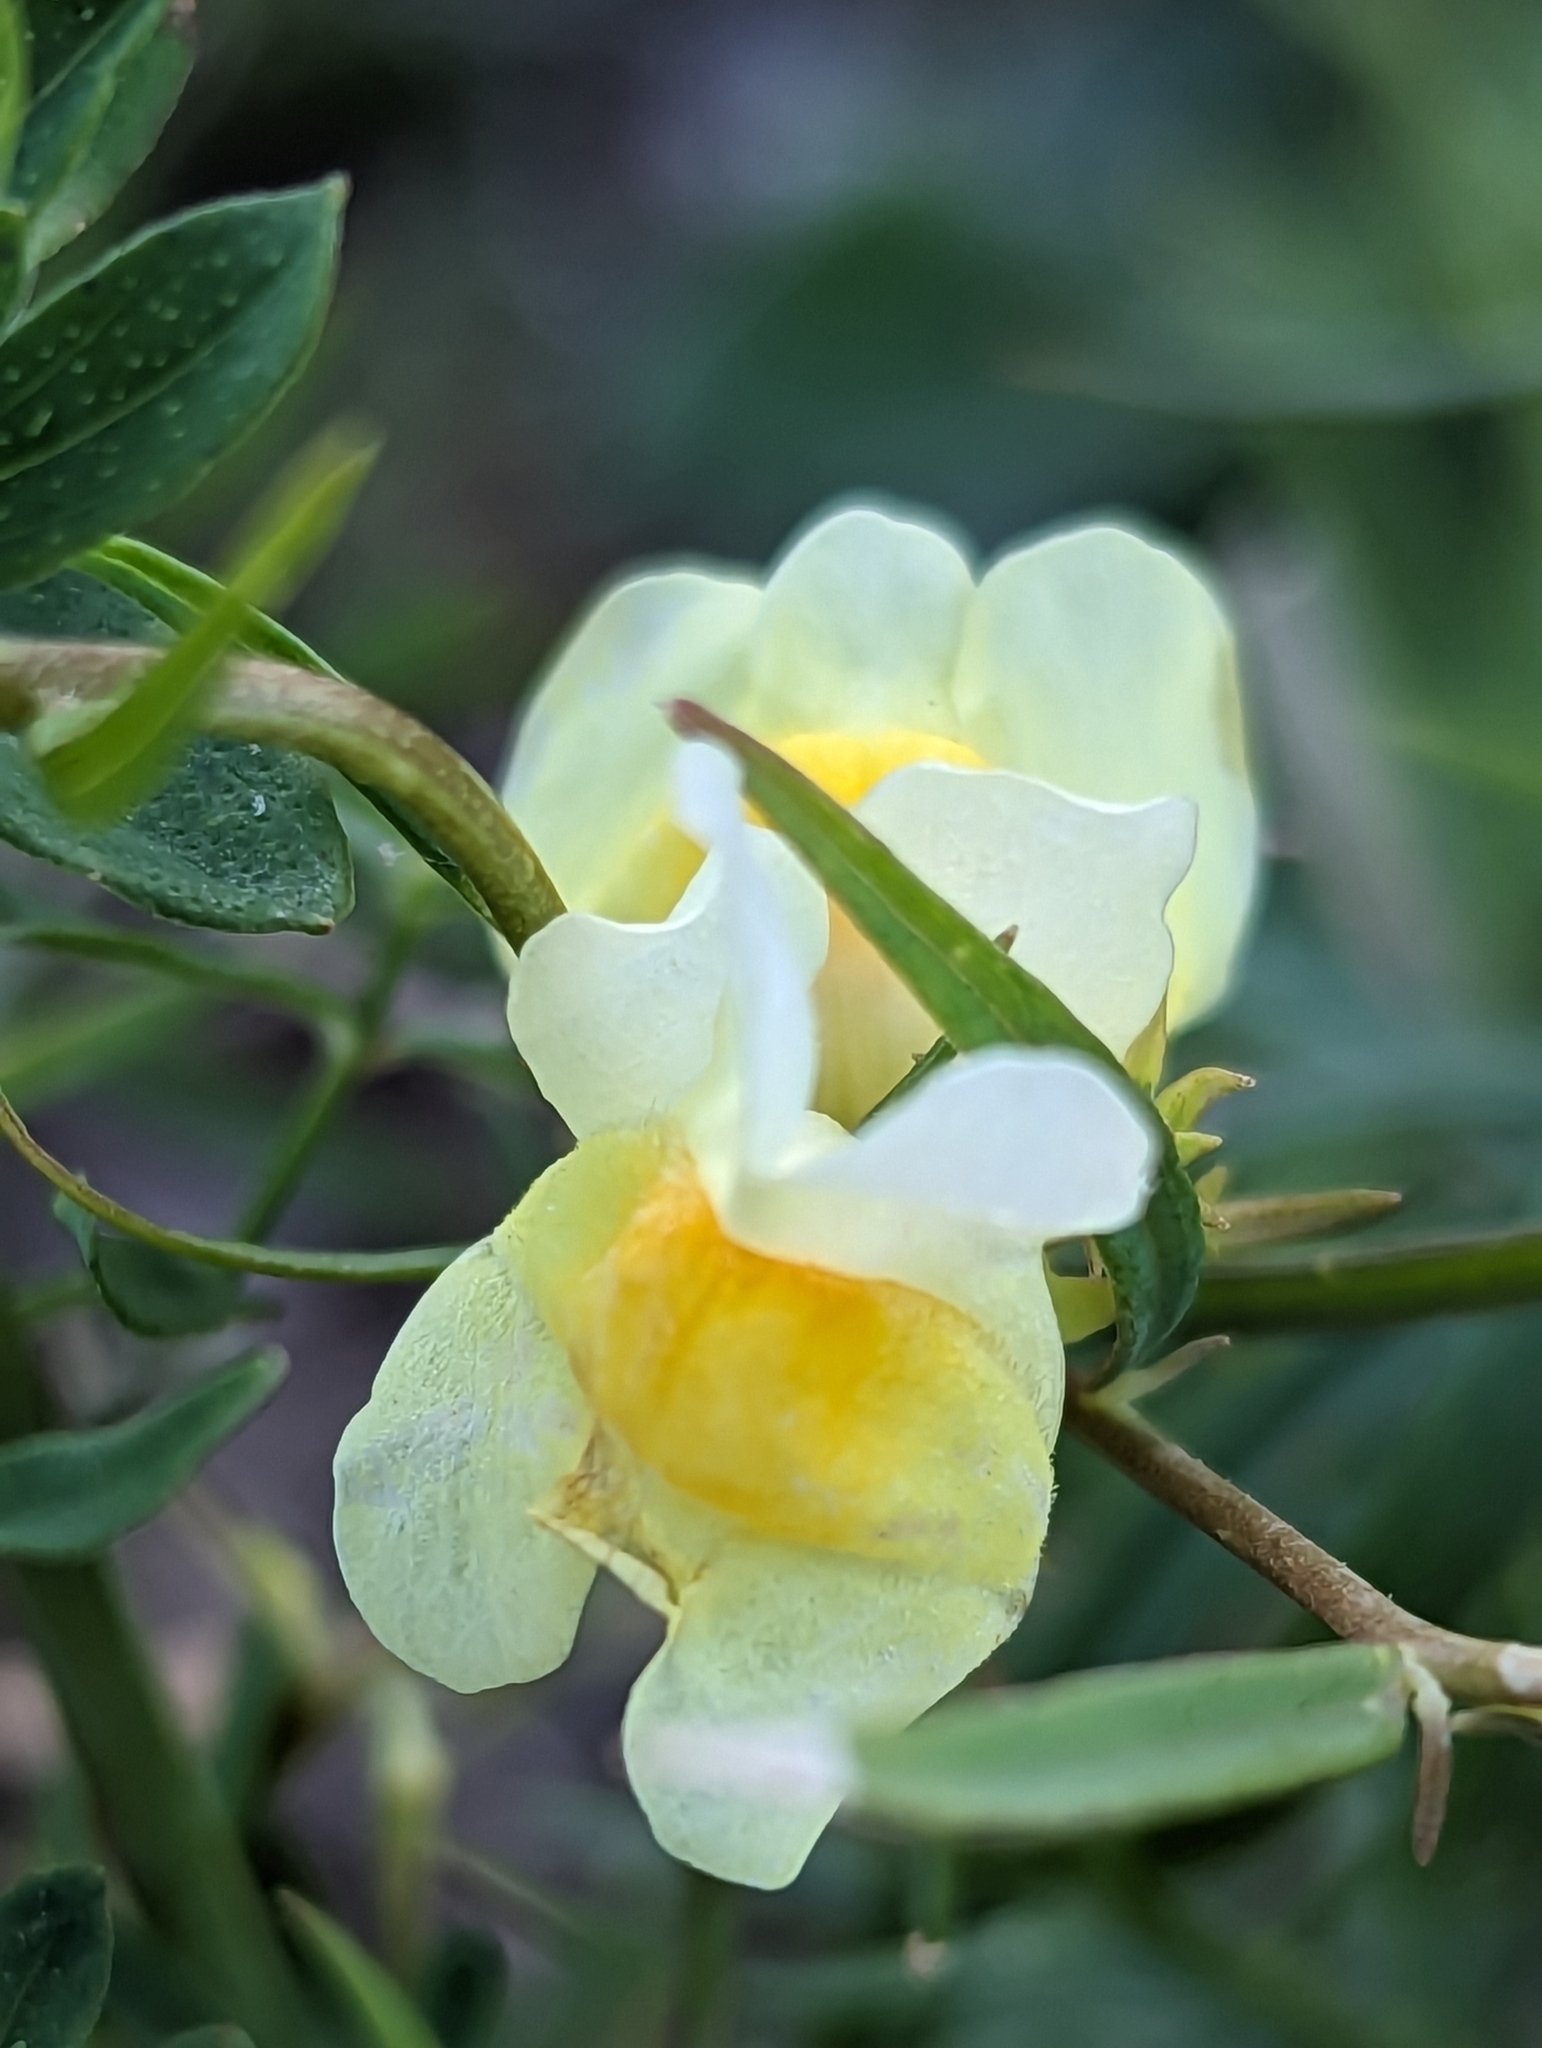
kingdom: Plantae
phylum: Tracheophyta
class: Magnoliopsida
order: Lamiales
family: Plantaginaceae
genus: Linaria
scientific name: Linaria vulgaris
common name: Butter and eggs
